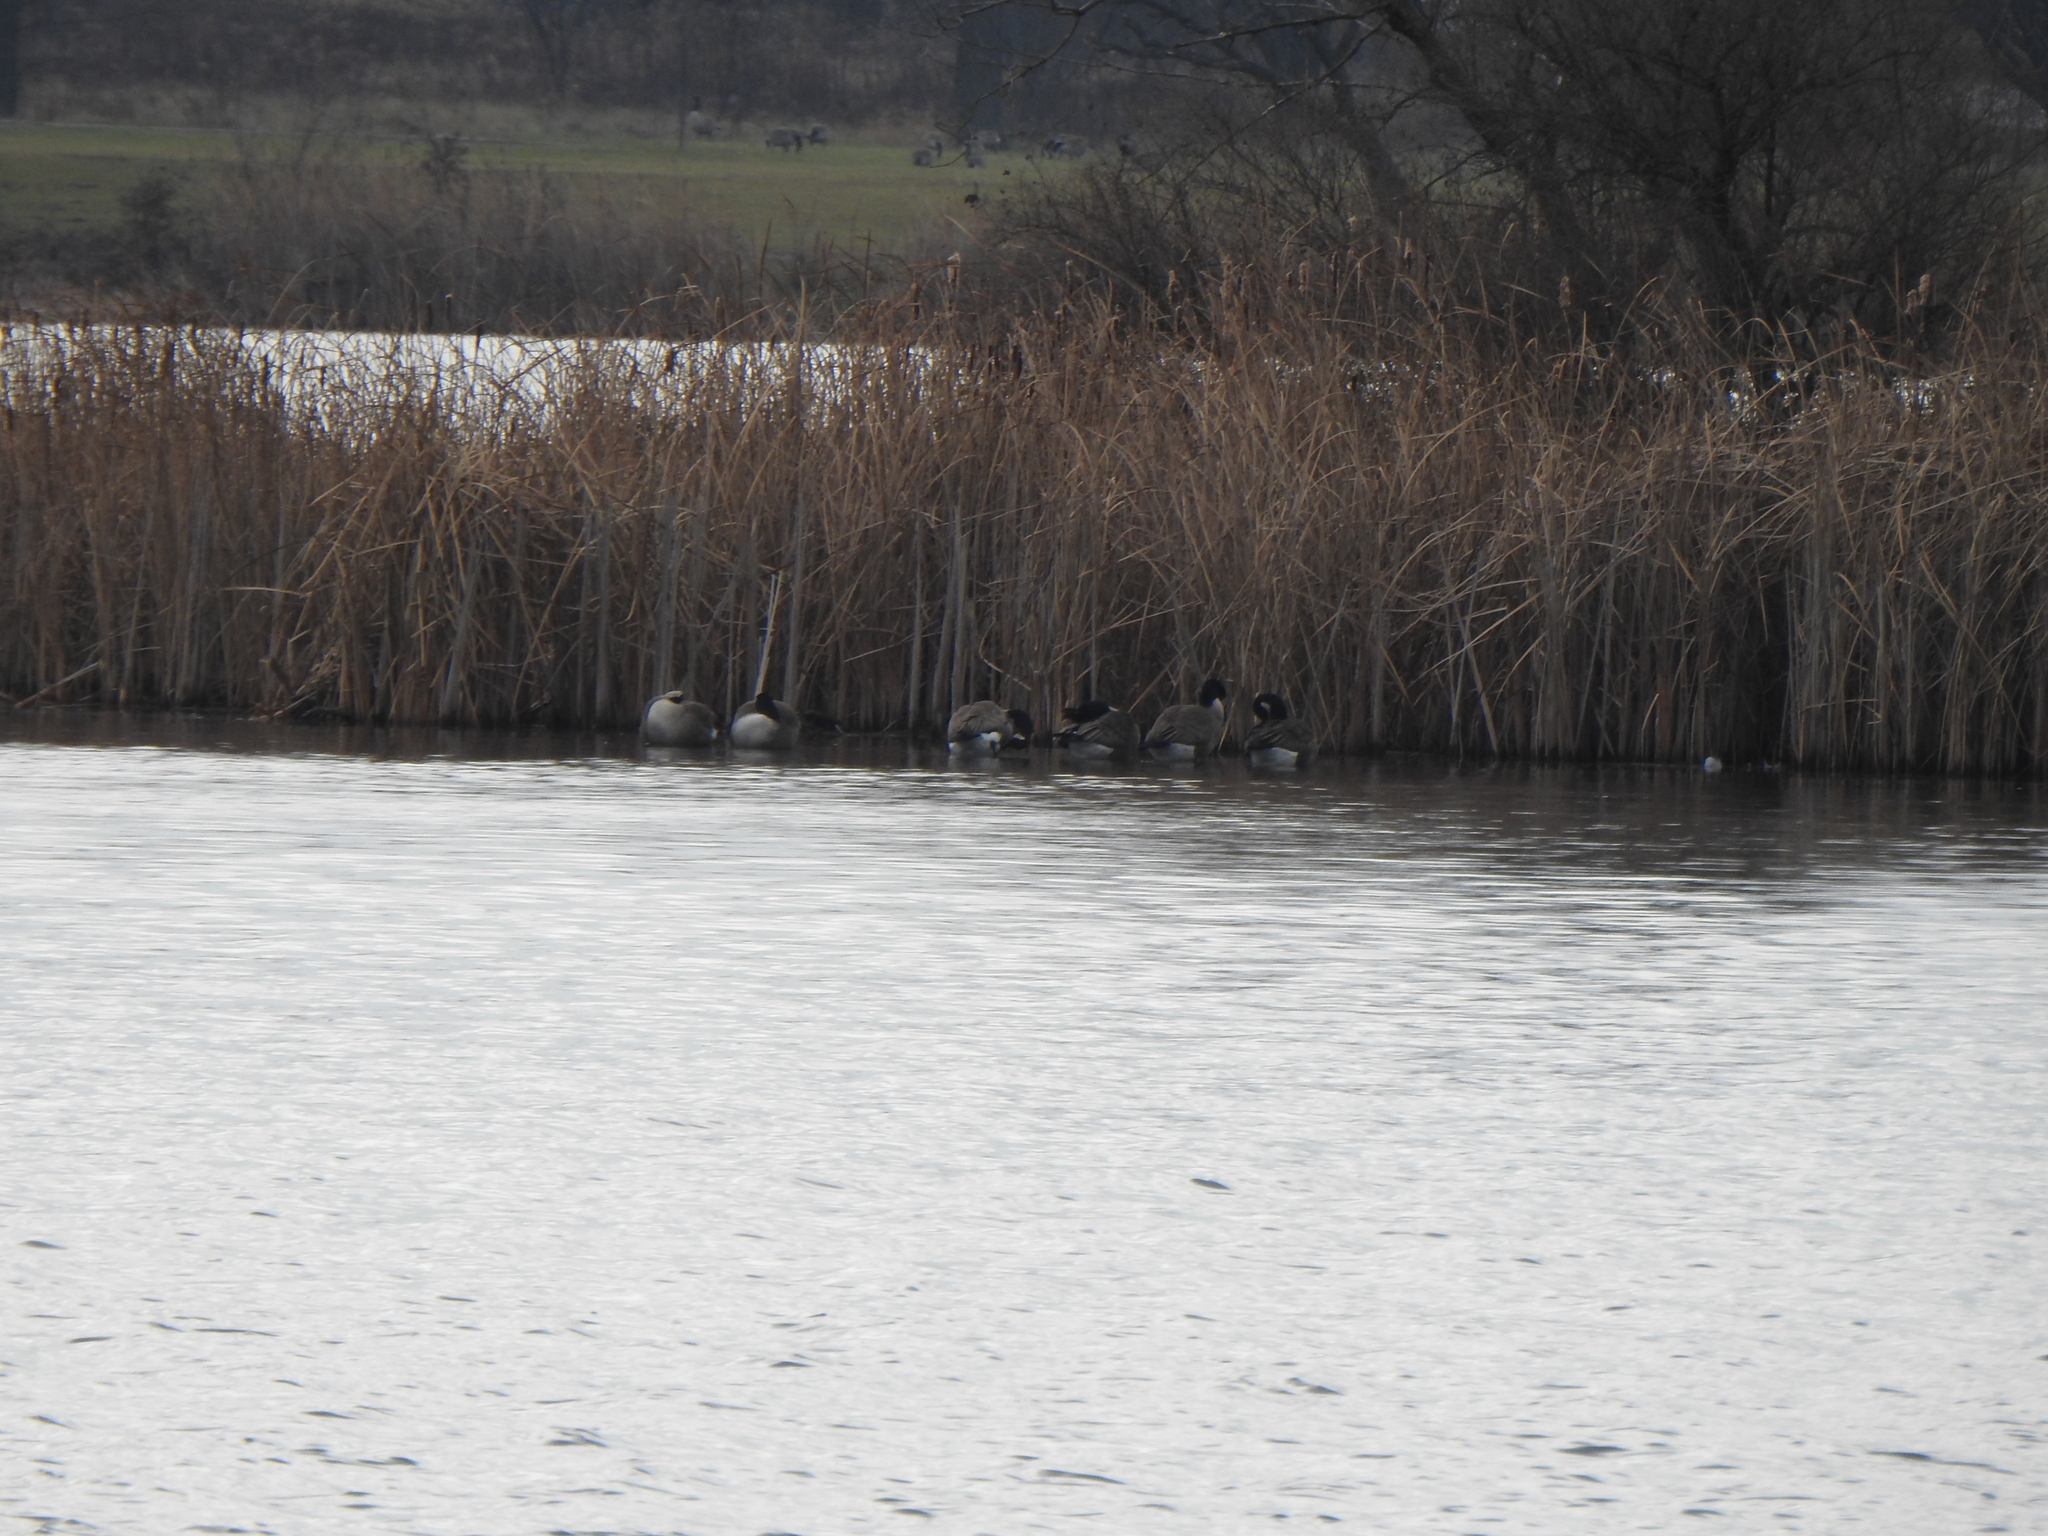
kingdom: Animalia
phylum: Chordata
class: Aves
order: Anseriformes
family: Anatidae
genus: Branta
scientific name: Branta canadensis
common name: Canada goose
